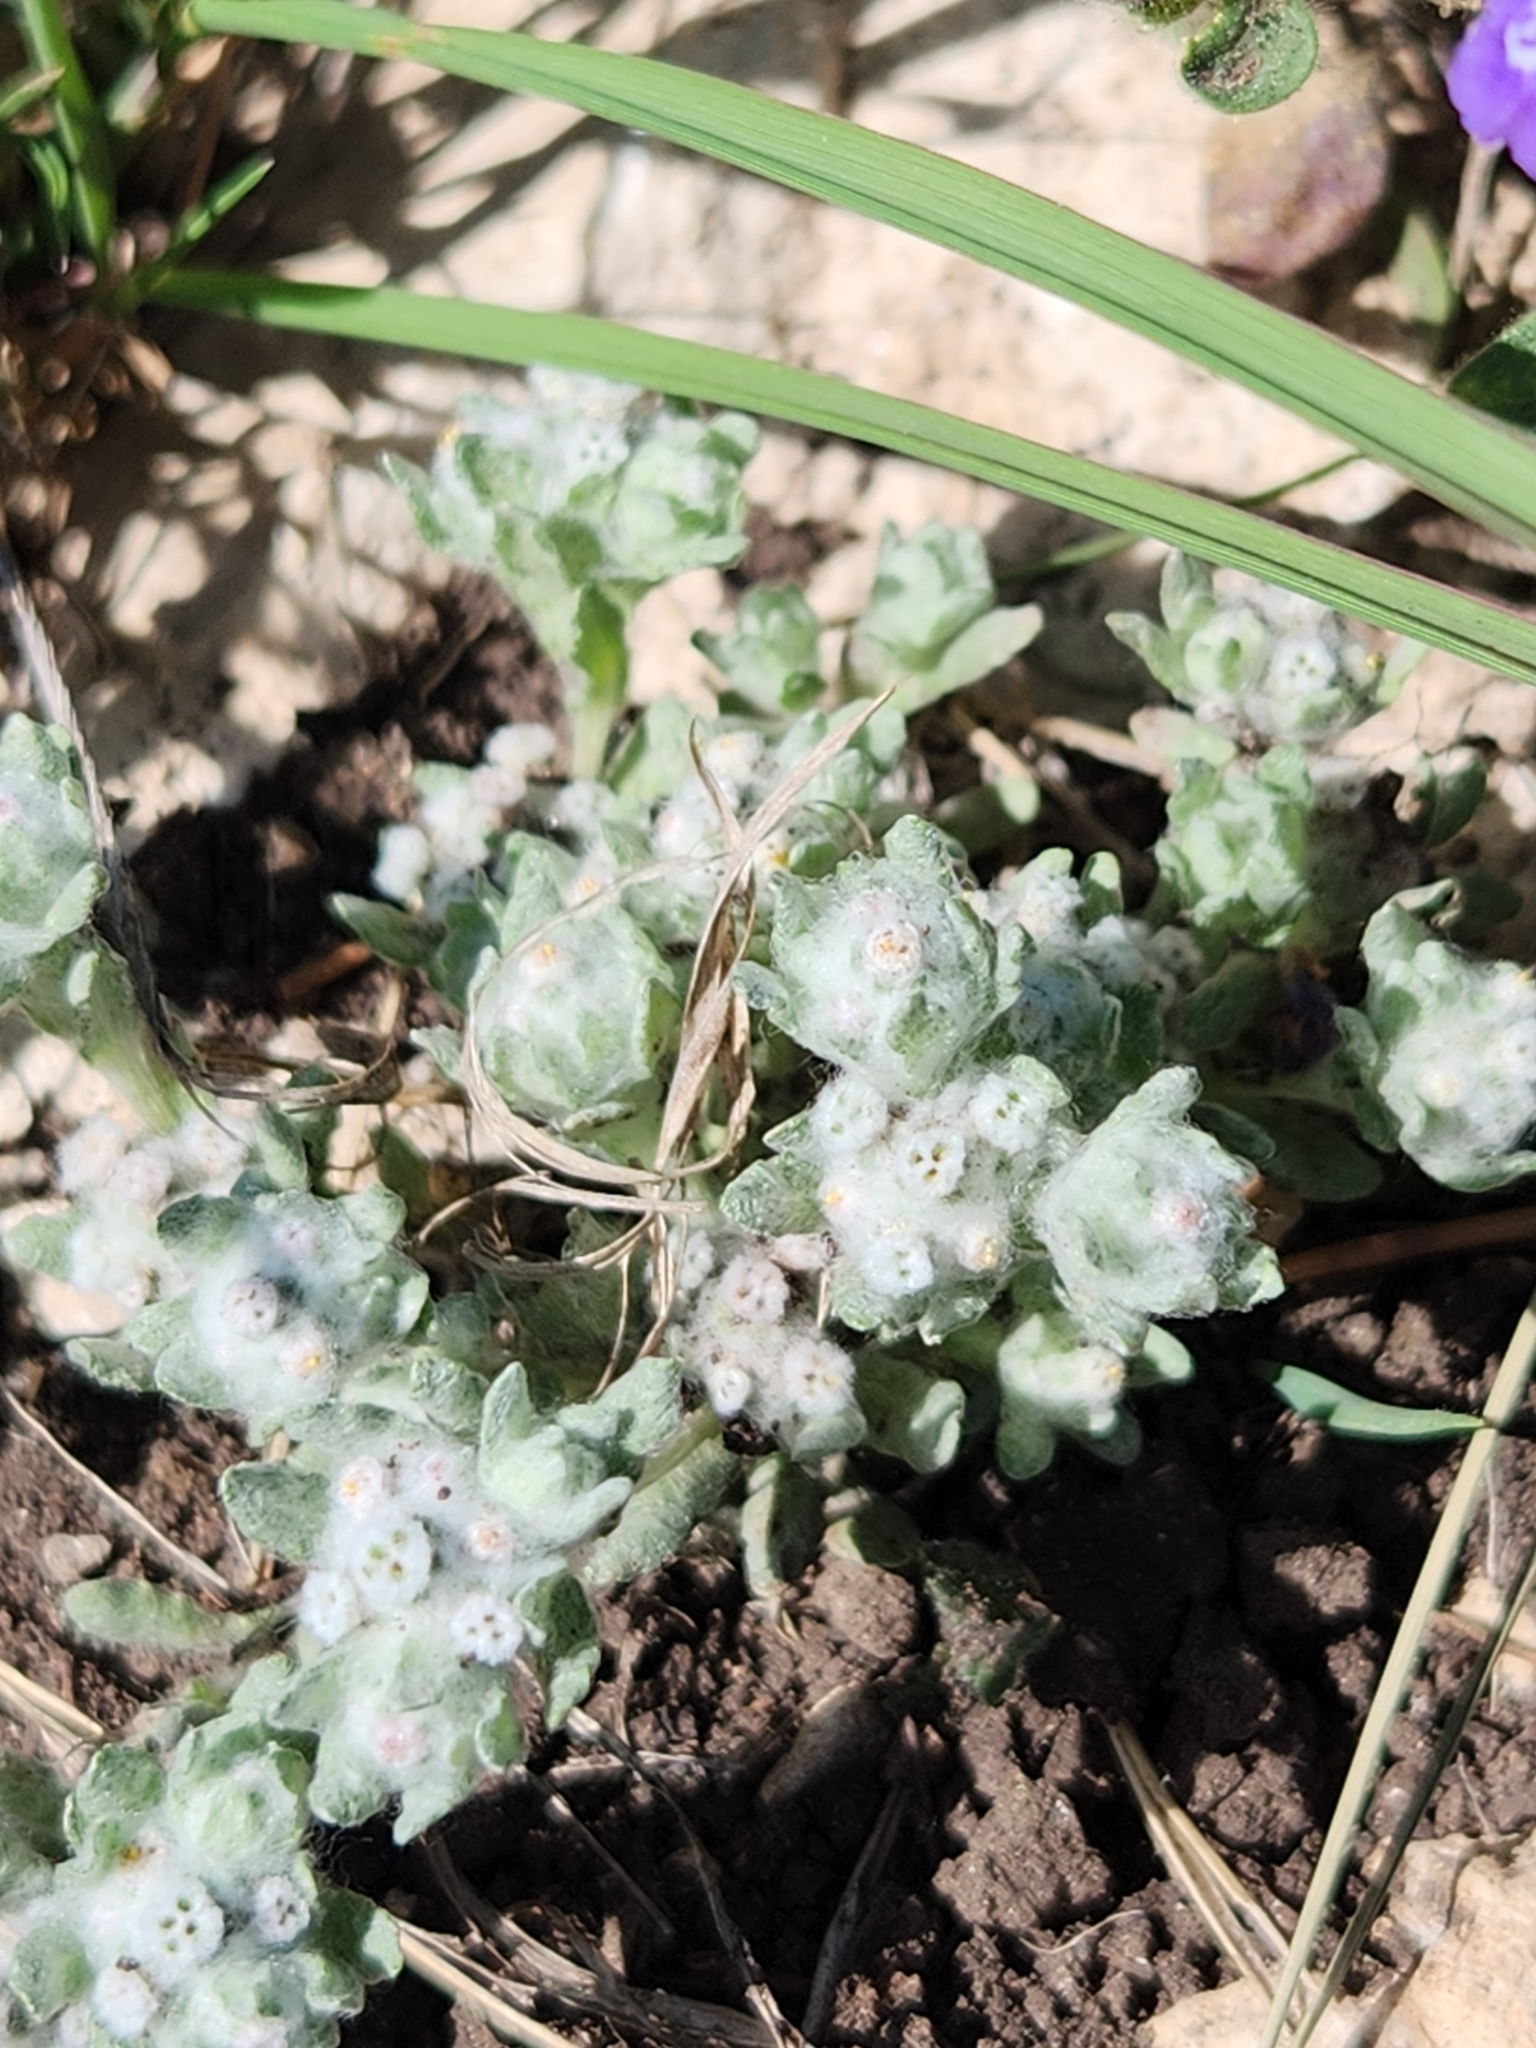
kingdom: Plantae
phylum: Tracheophyta
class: Magnoliopsida
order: Asterales
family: Asteraceae
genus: Diaperia
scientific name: Diaperia verna
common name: Many-stem rabbit-tobacco
